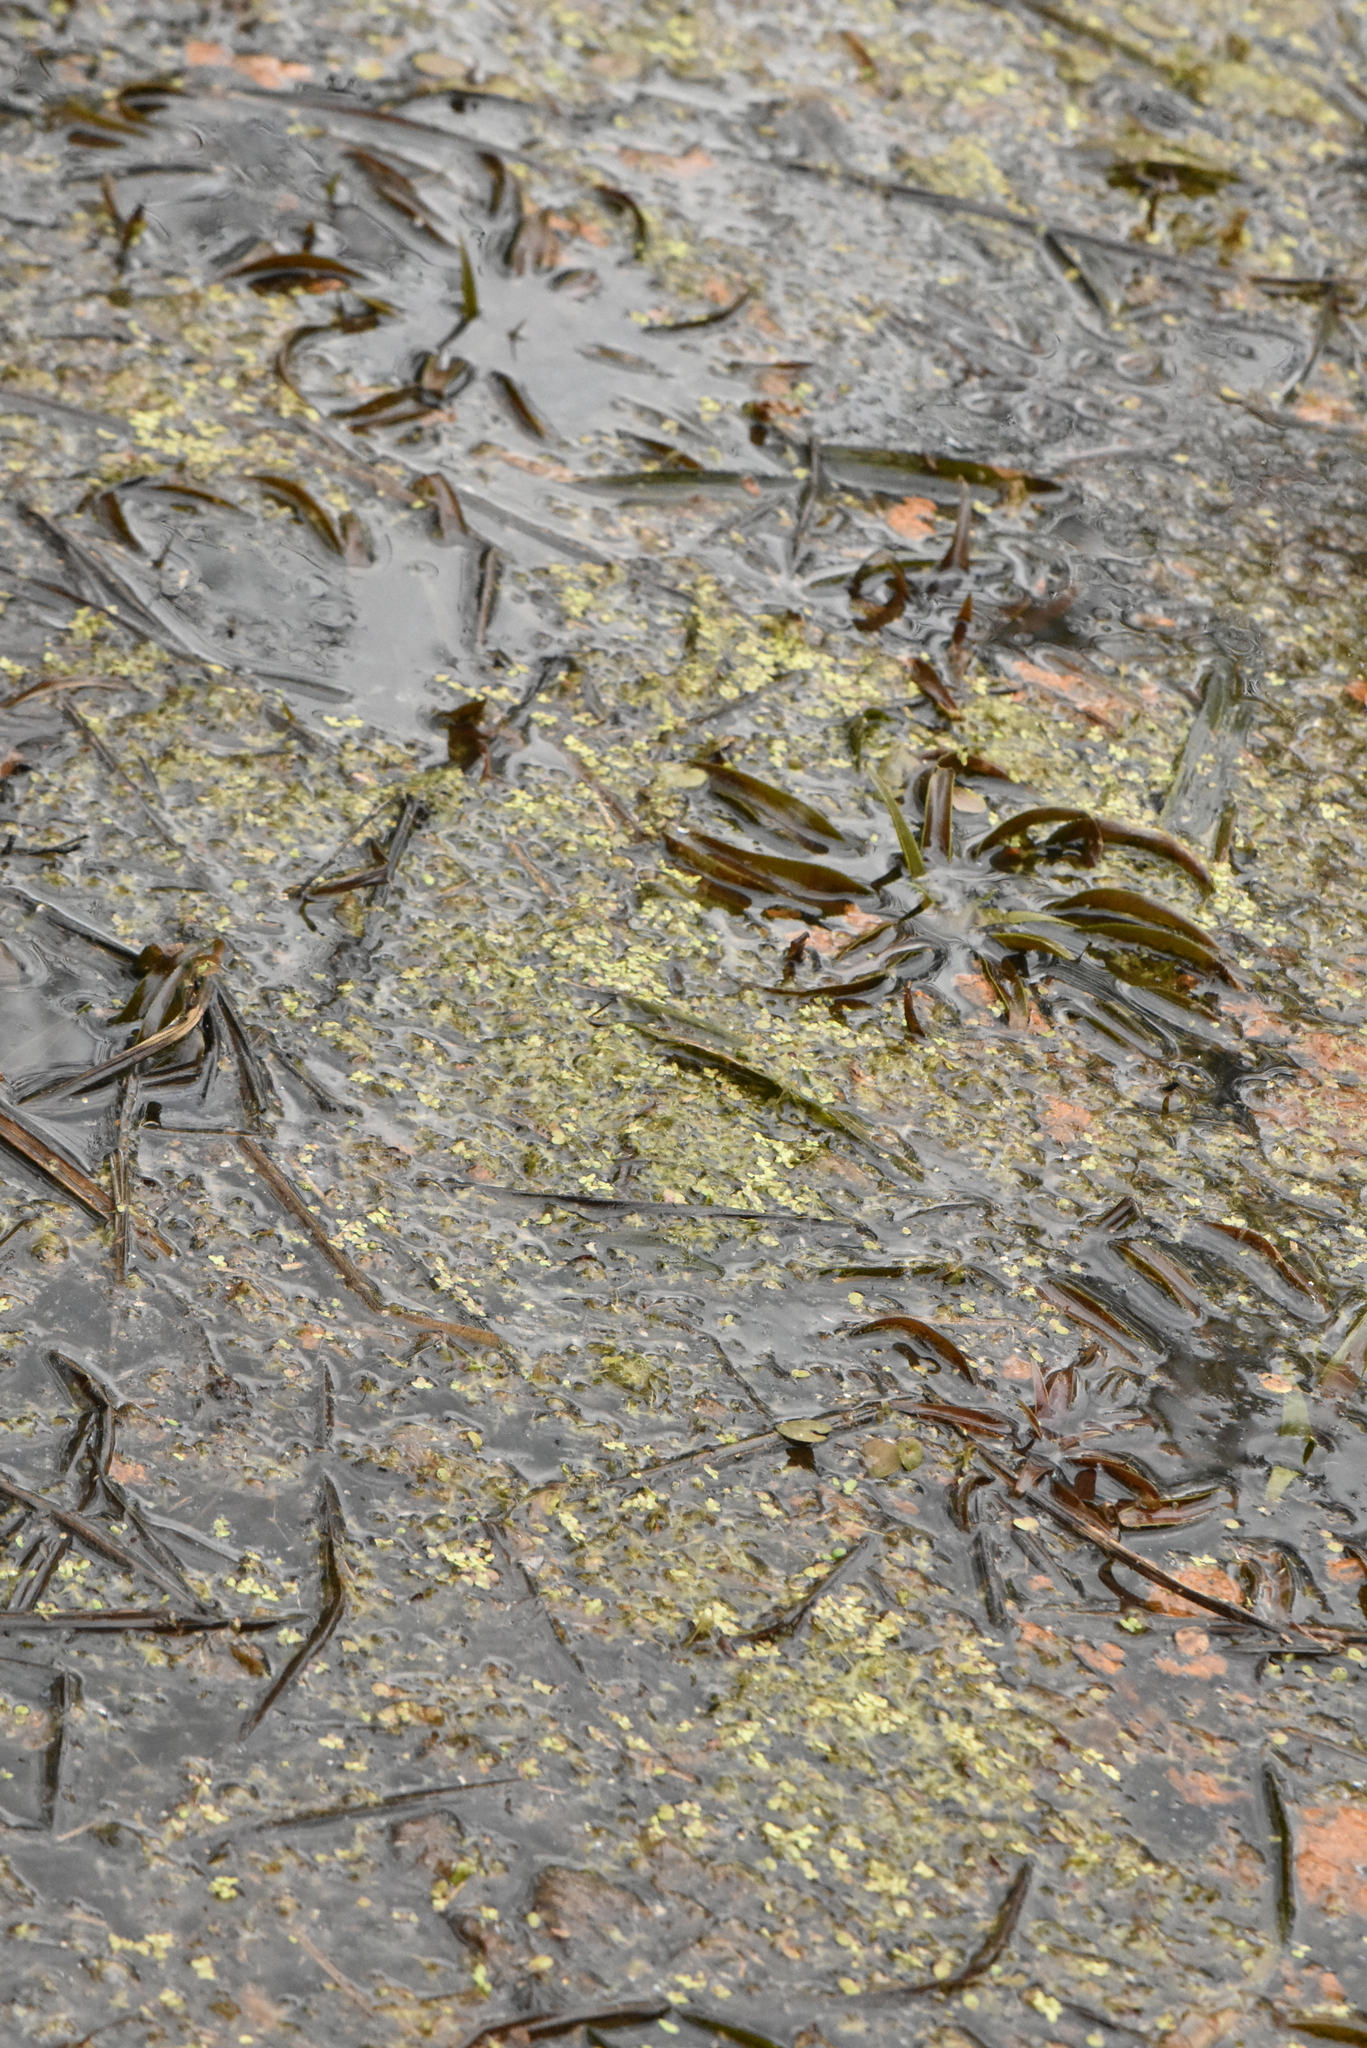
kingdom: Plantae
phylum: Tracheophyta
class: Liliopsida
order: Alismatales
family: Hydrocharitaceae
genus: Stratiotes
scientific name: Stratiotes aloides
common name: Water-soldier
